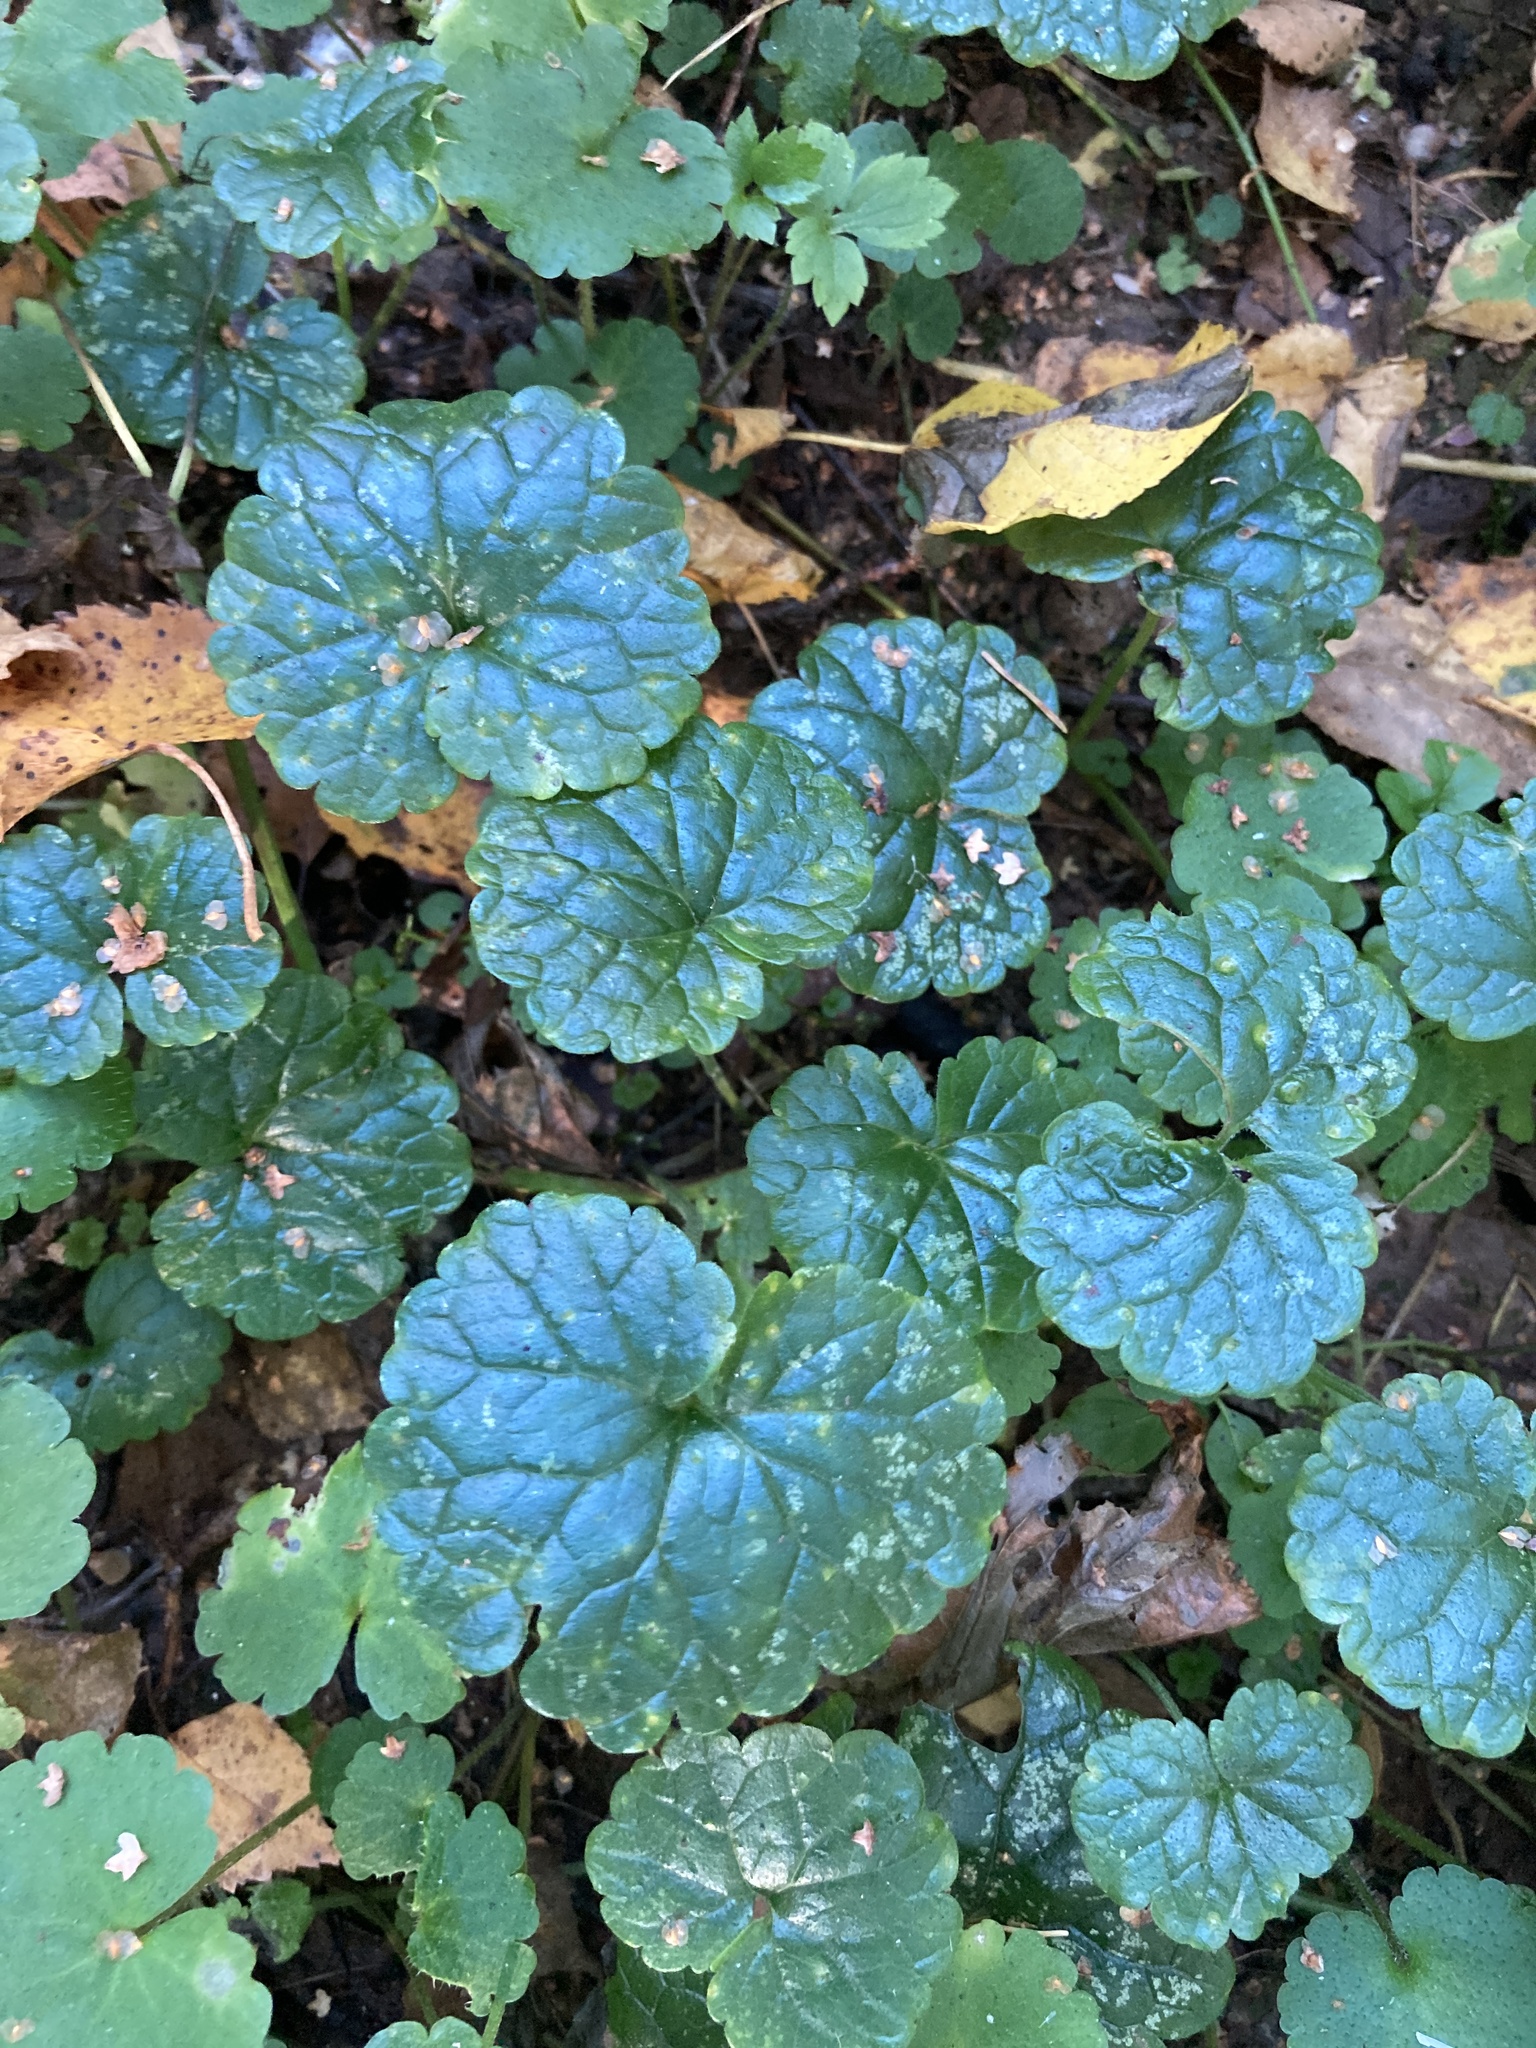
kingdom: Plantae
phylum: Tracheophyta
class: Magnoliopsida
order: Lamiales
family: Lamiaceae
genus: Glechoma
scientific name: Glechoma hederacea
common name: Ground ivy
